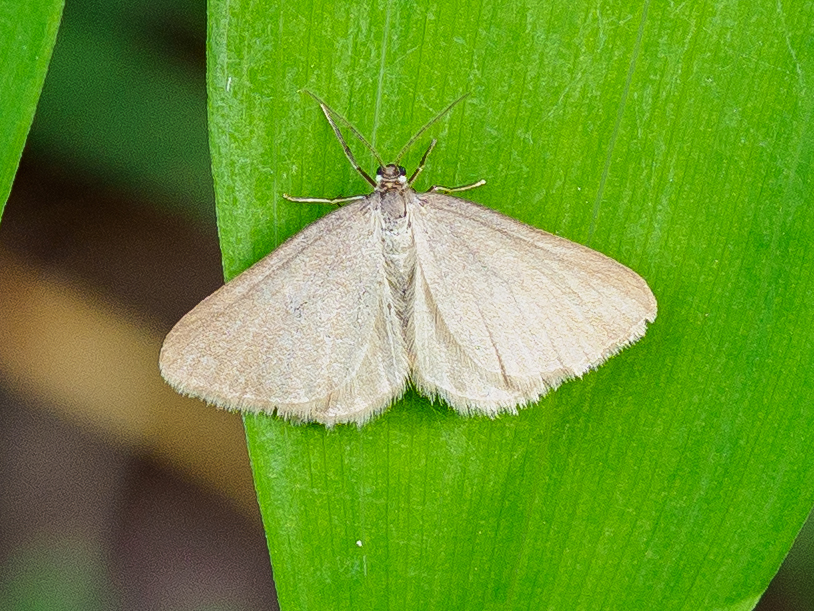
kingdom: Animalia
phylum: Arthropoda
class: Insecta
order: Lepidoptera
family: Geometridae
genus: Minoa
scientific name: Minoa murinata
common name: Drab looper
